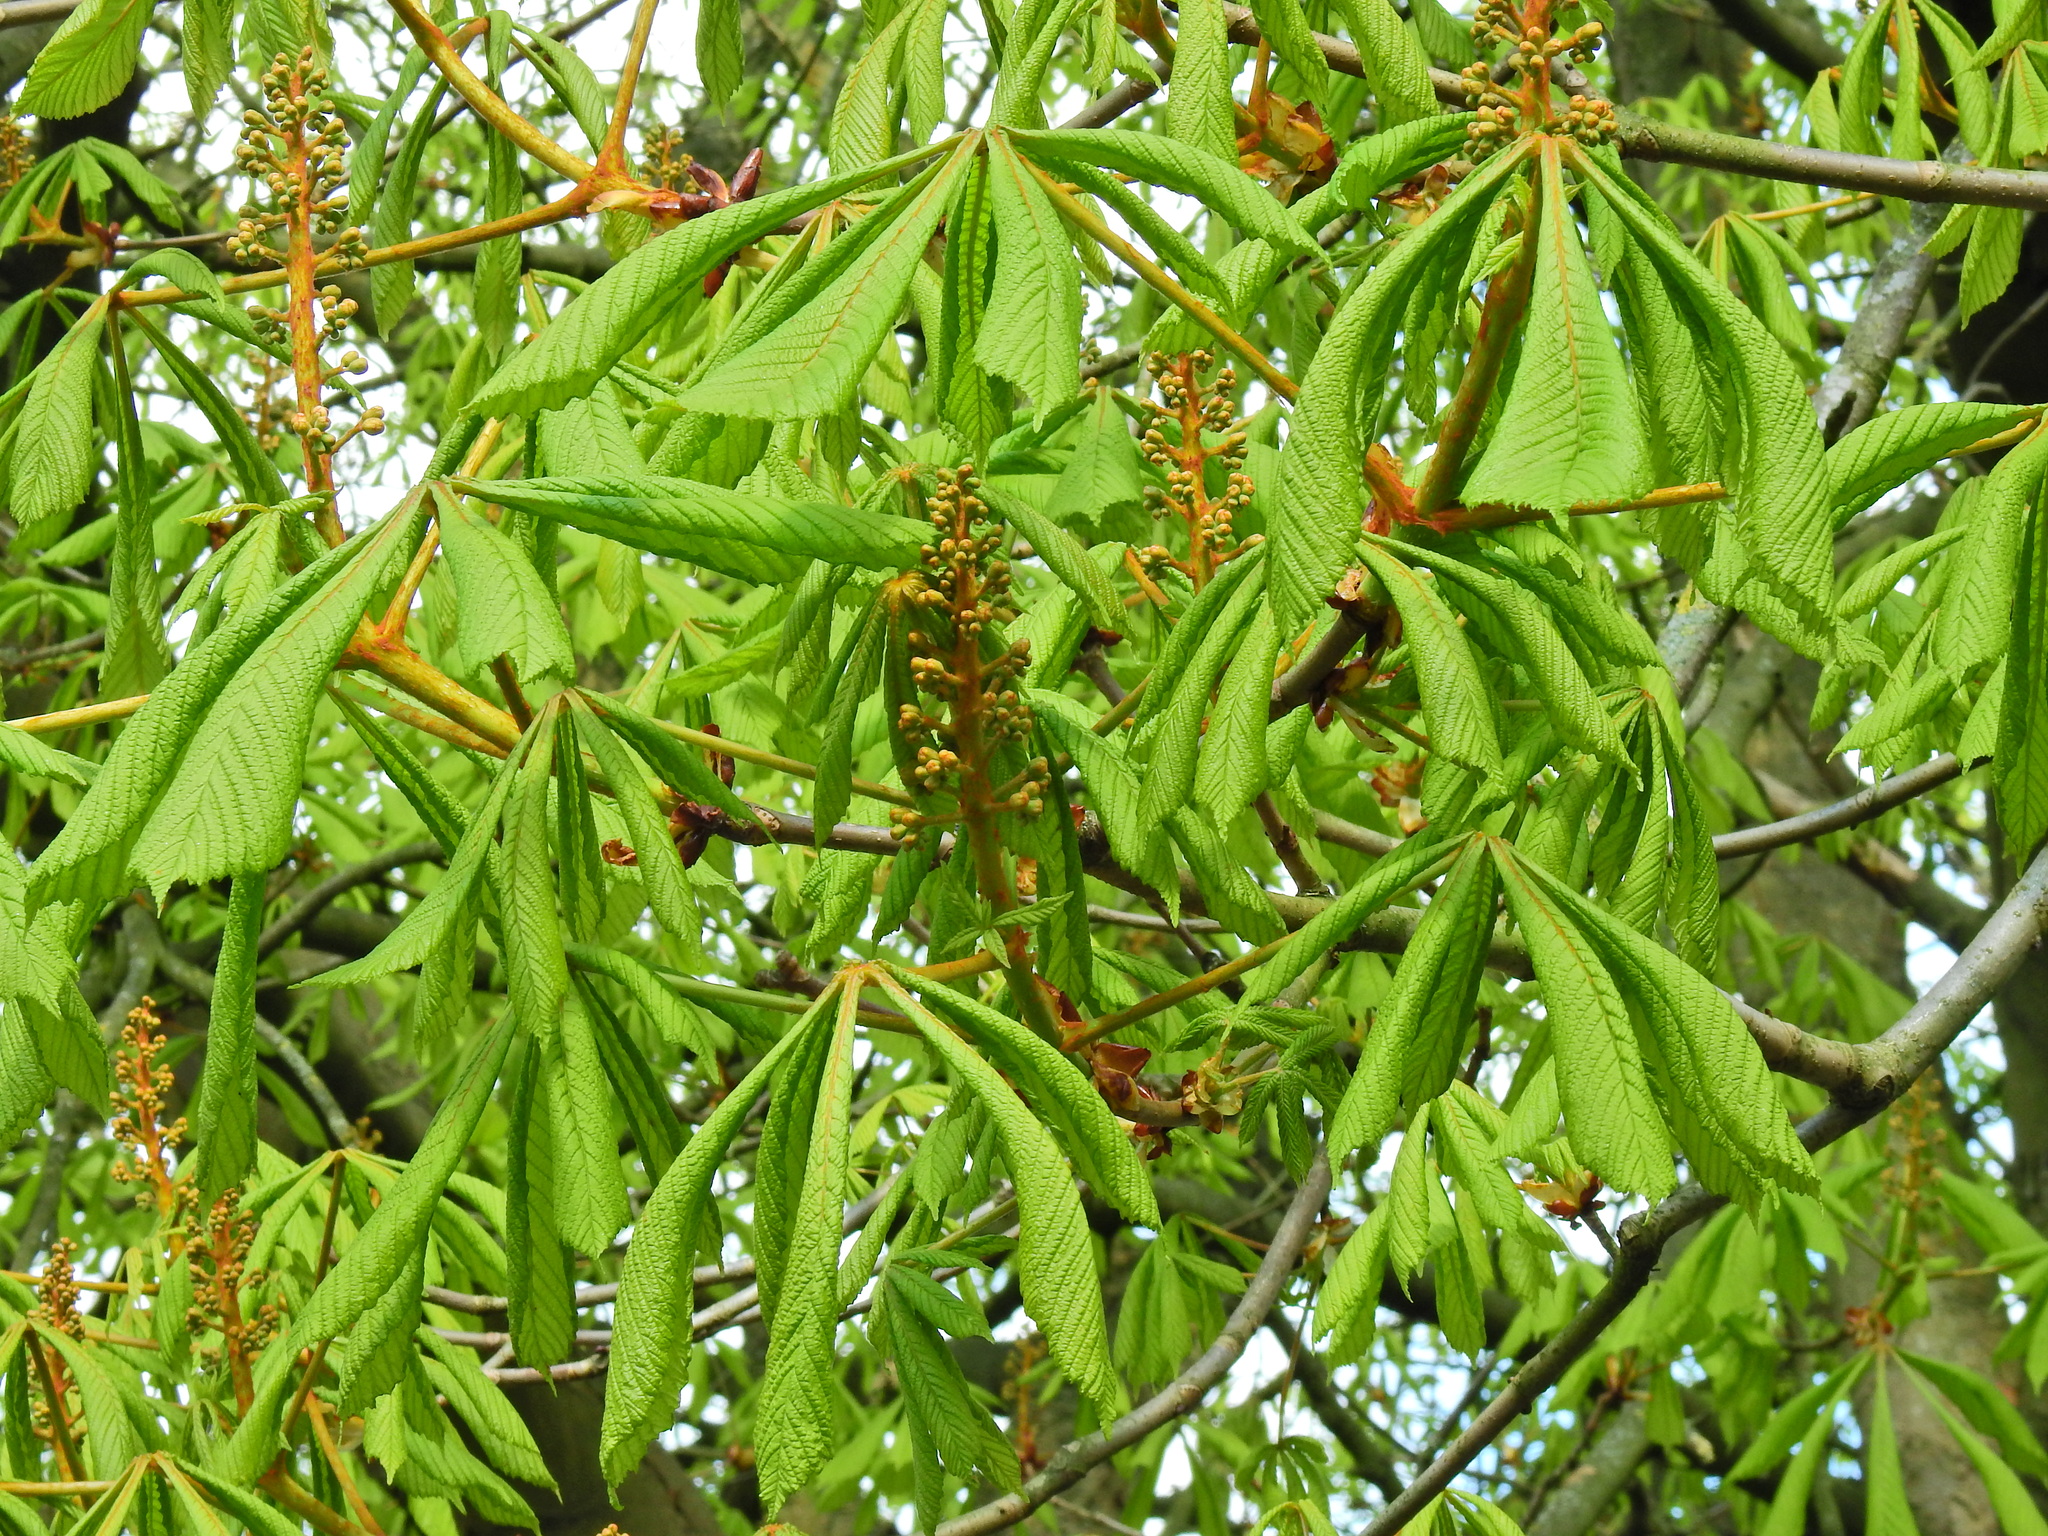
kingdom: Plantae
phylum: Tracheophyta
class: Magnoliopsida
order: Sapindales
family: Sapindaceae
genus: Aesculus
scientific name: Aesculus hippocastanum
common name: Horse-chestnut
